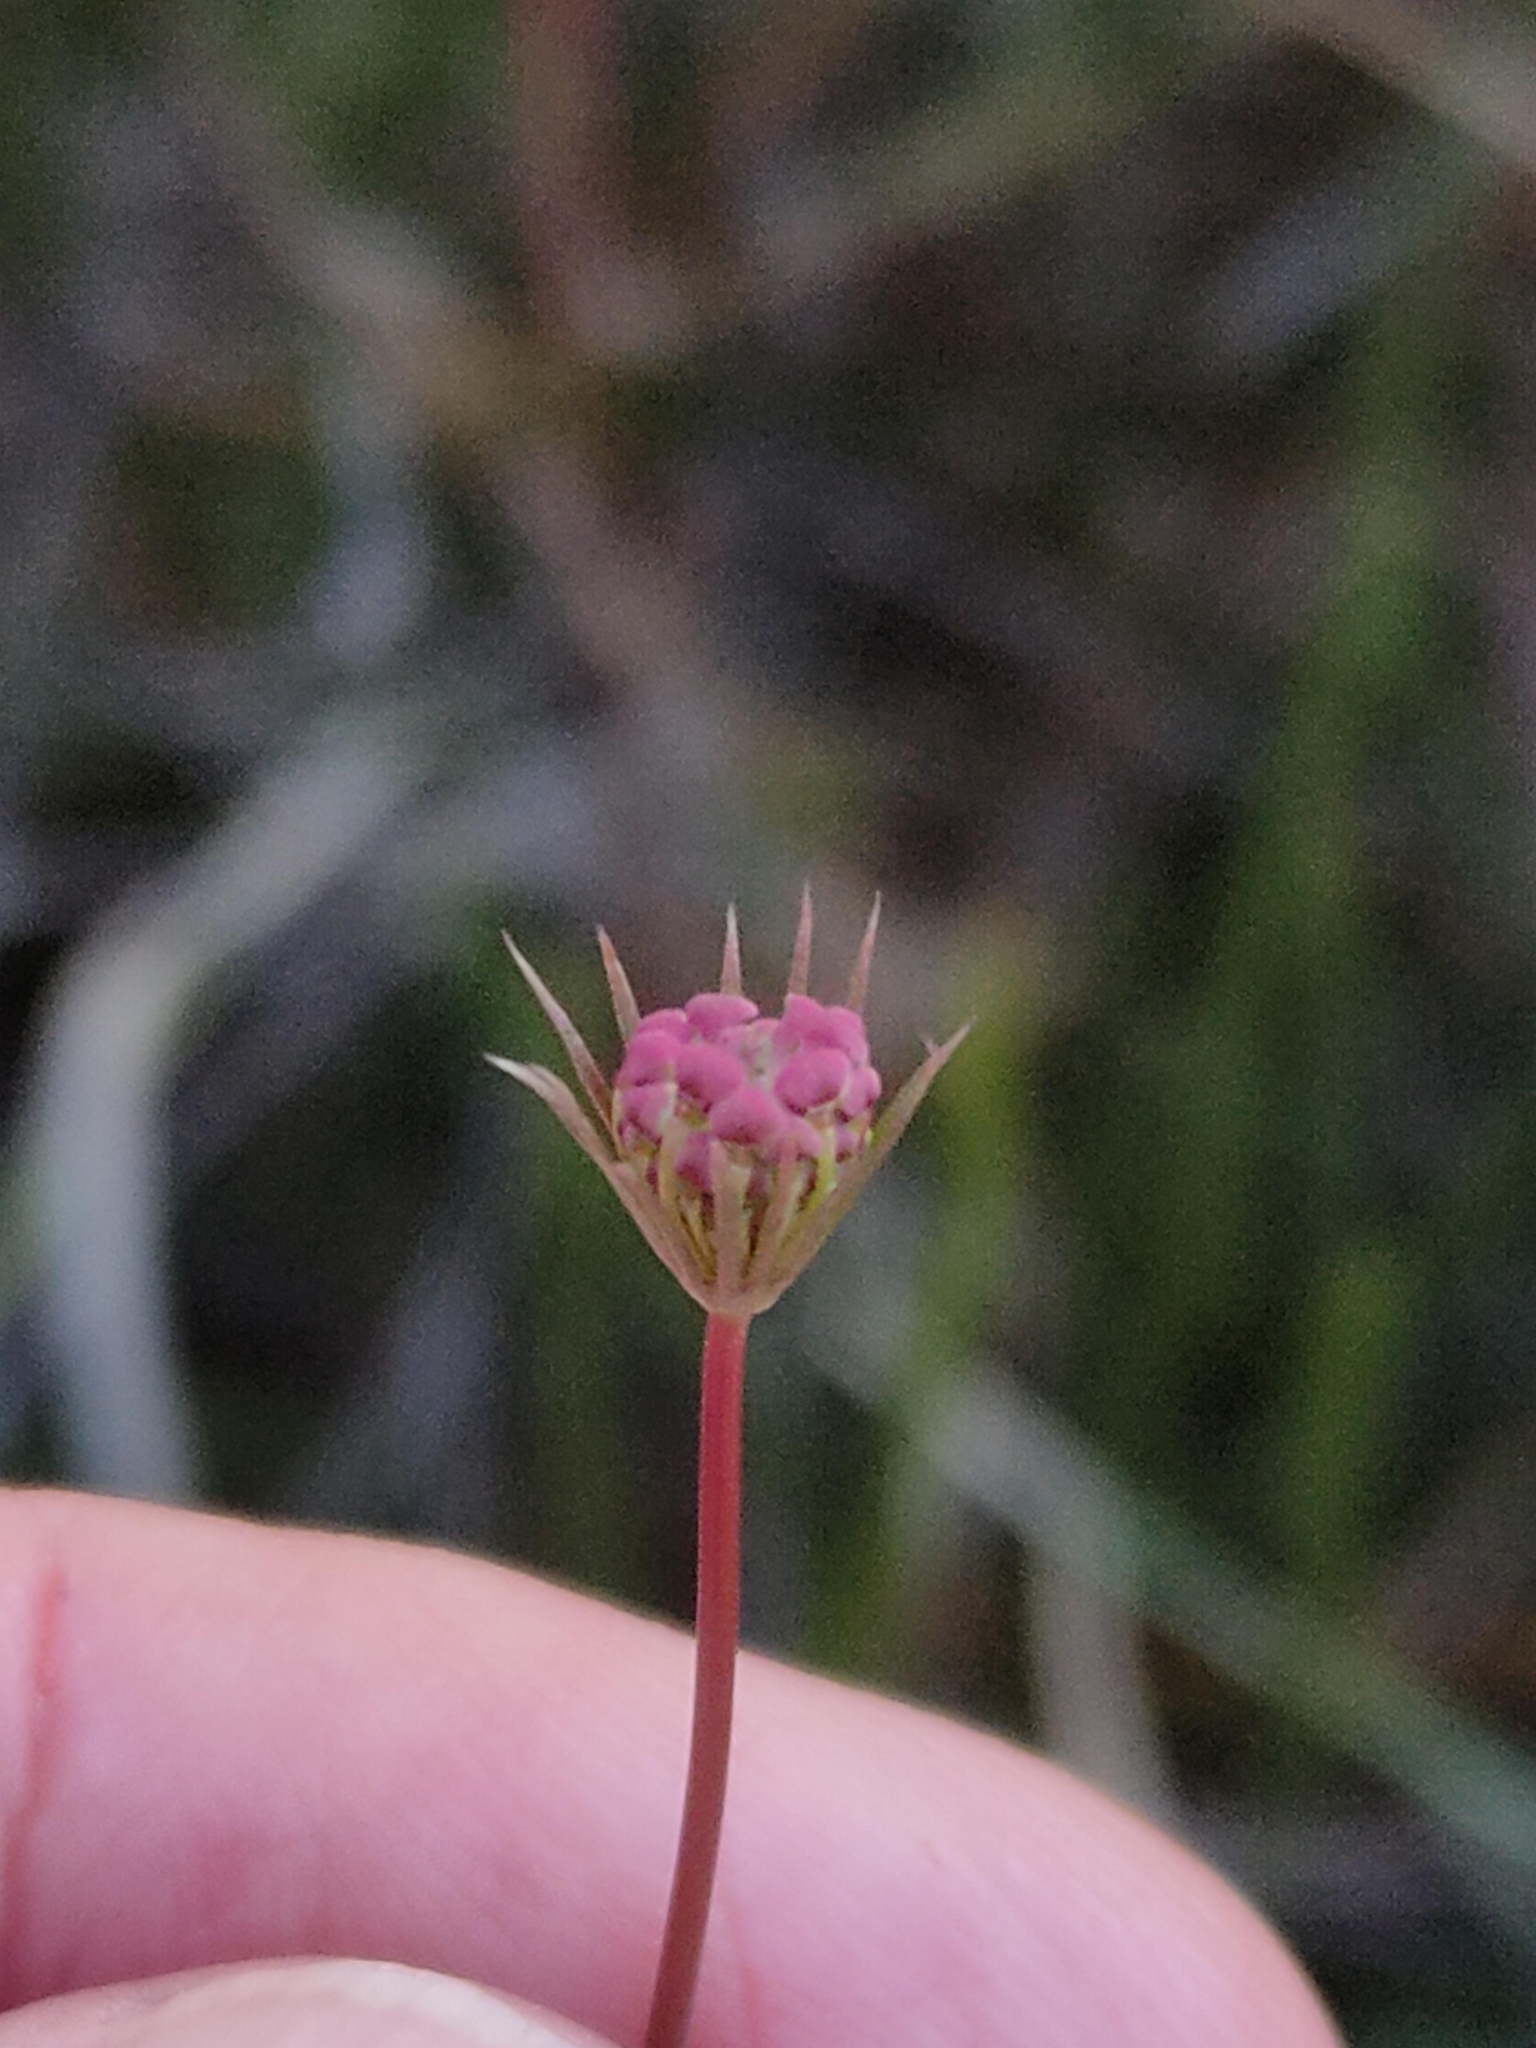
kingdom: Plantae
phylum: Tracheophyta
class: Magnoliopsida
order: Apiales
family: Araliaceae
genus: Trachymene
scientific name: Trachymene incisa
